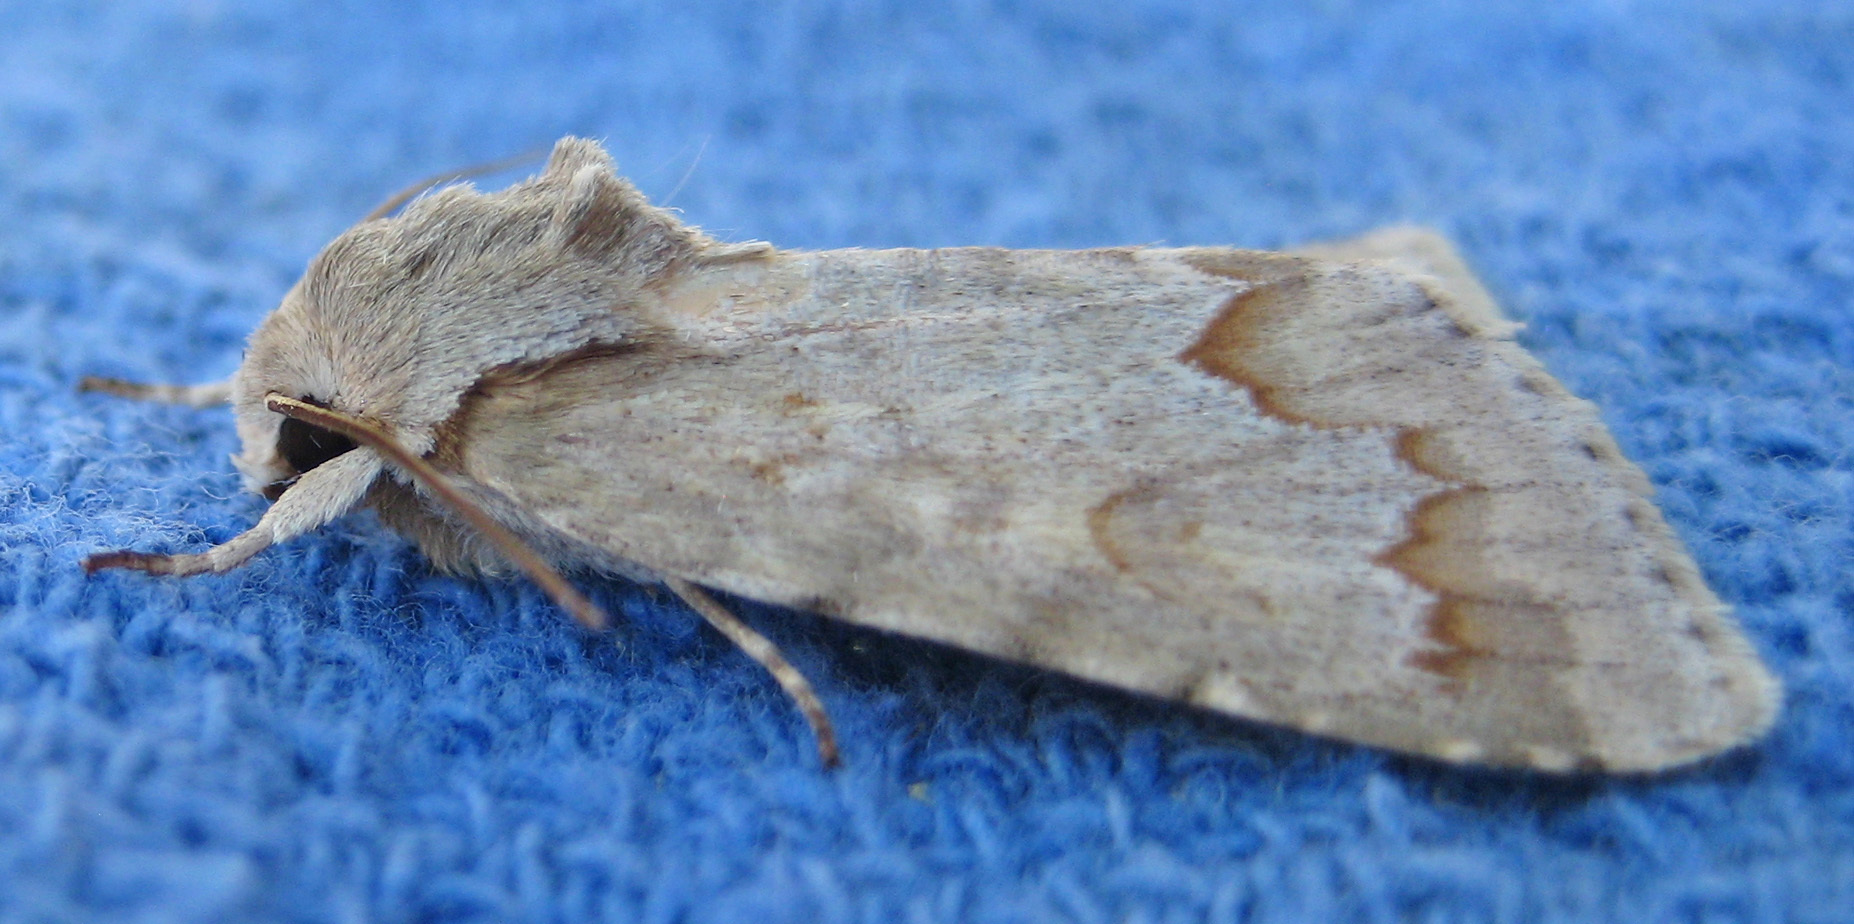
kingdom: Animalia
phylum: Arthropoda
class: Insecta
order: Lepidoptera
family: Noctuidae
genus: Acronicta
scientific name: Acronicta betulae
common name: Birch dagger moth
